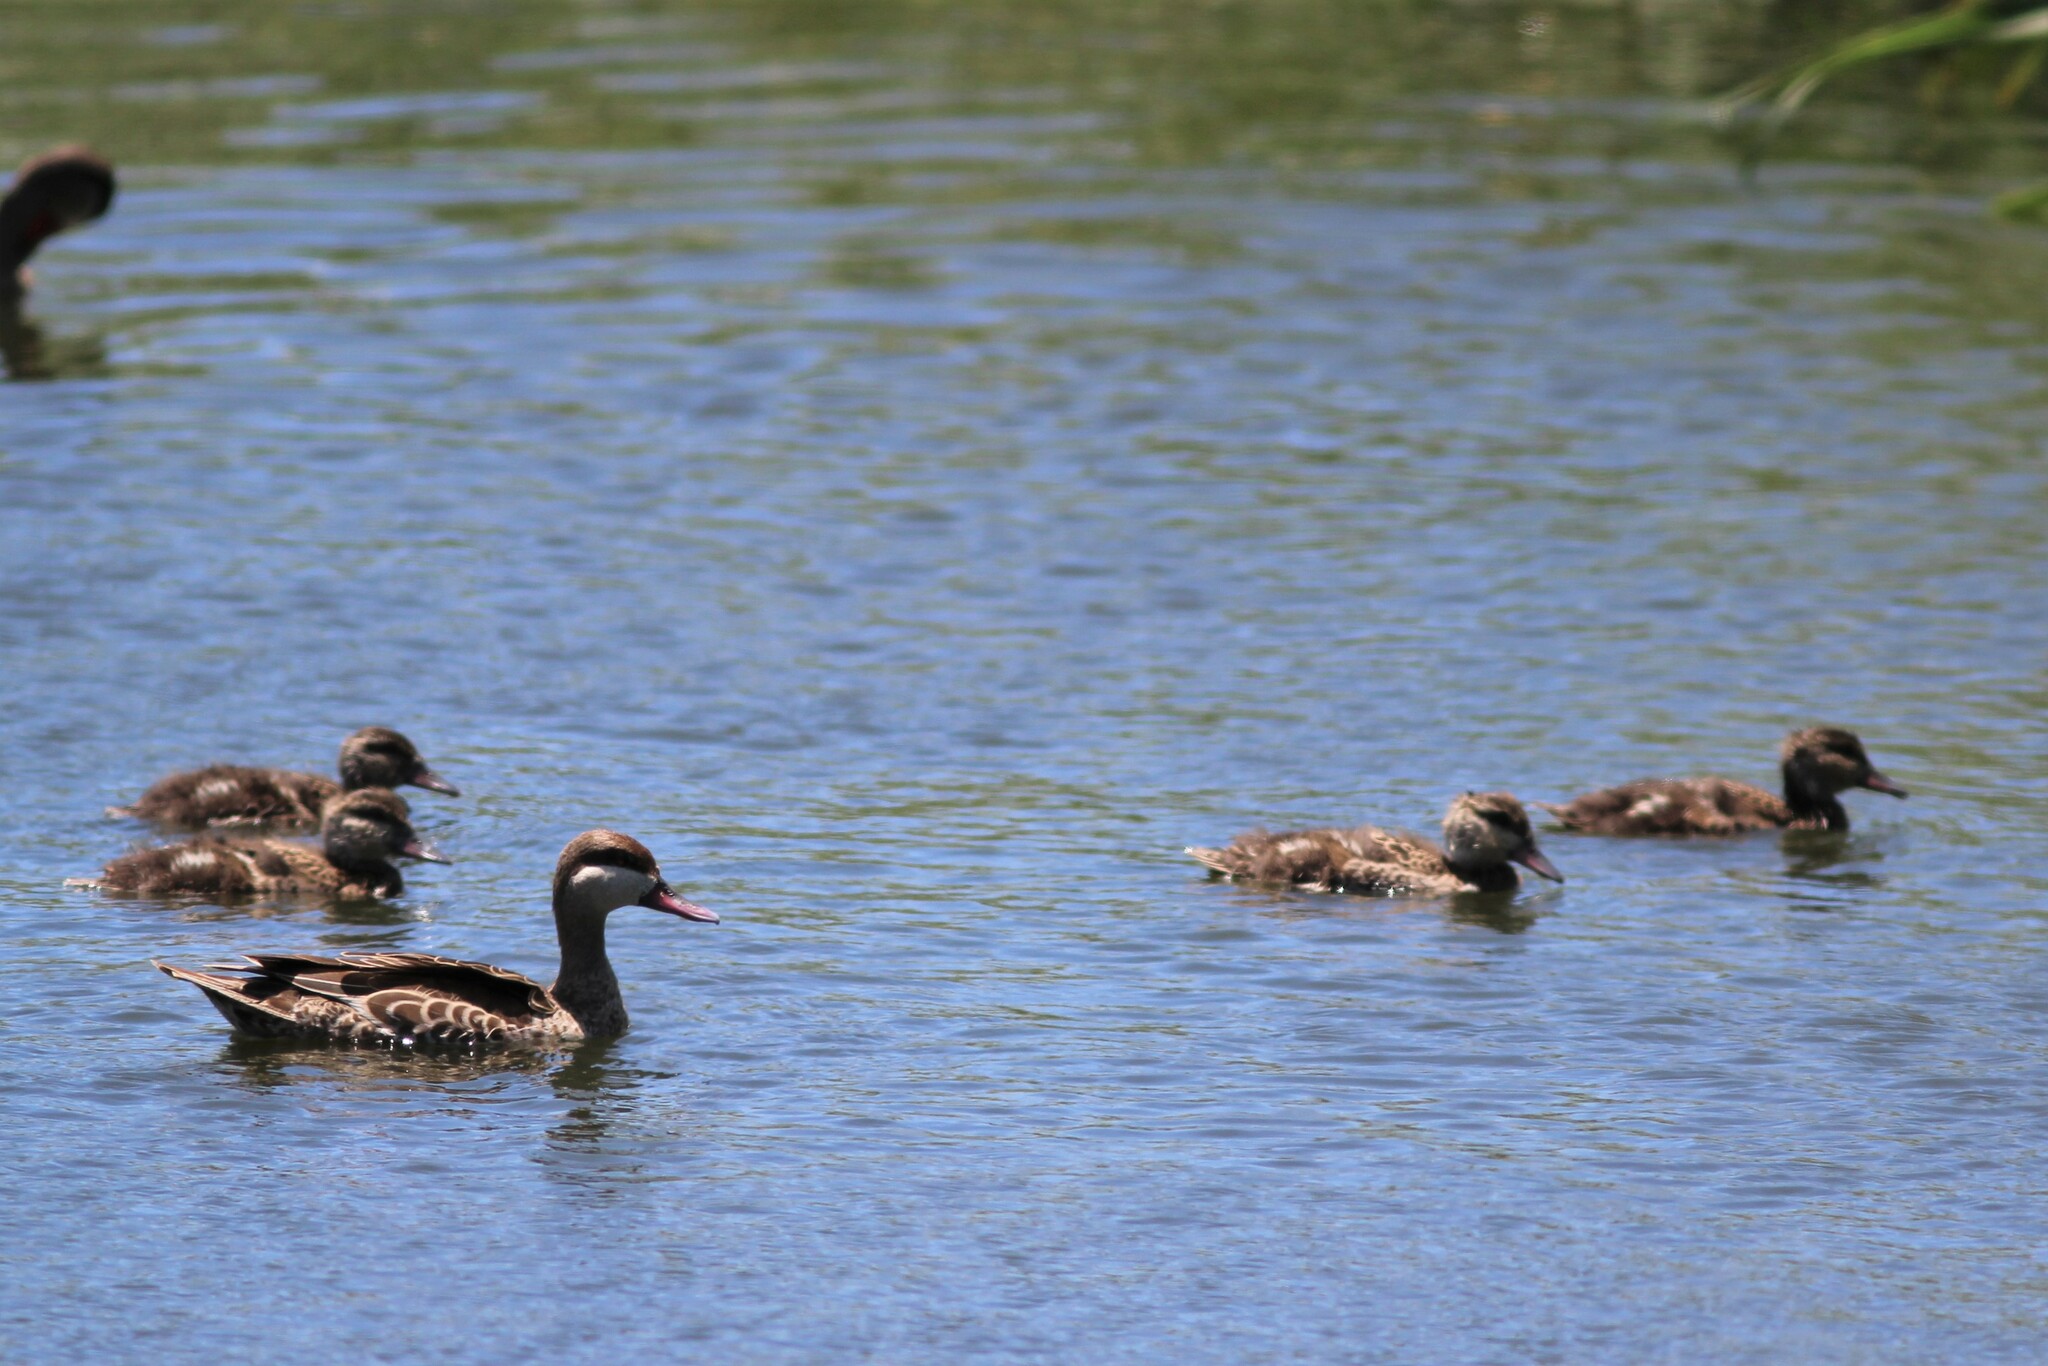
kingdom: Animalia
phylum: Chordata
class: Aves
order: Anseriformes
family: Anatidae
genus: Anas
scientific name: Anas erythrorhyncha
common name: Red-billed teal
